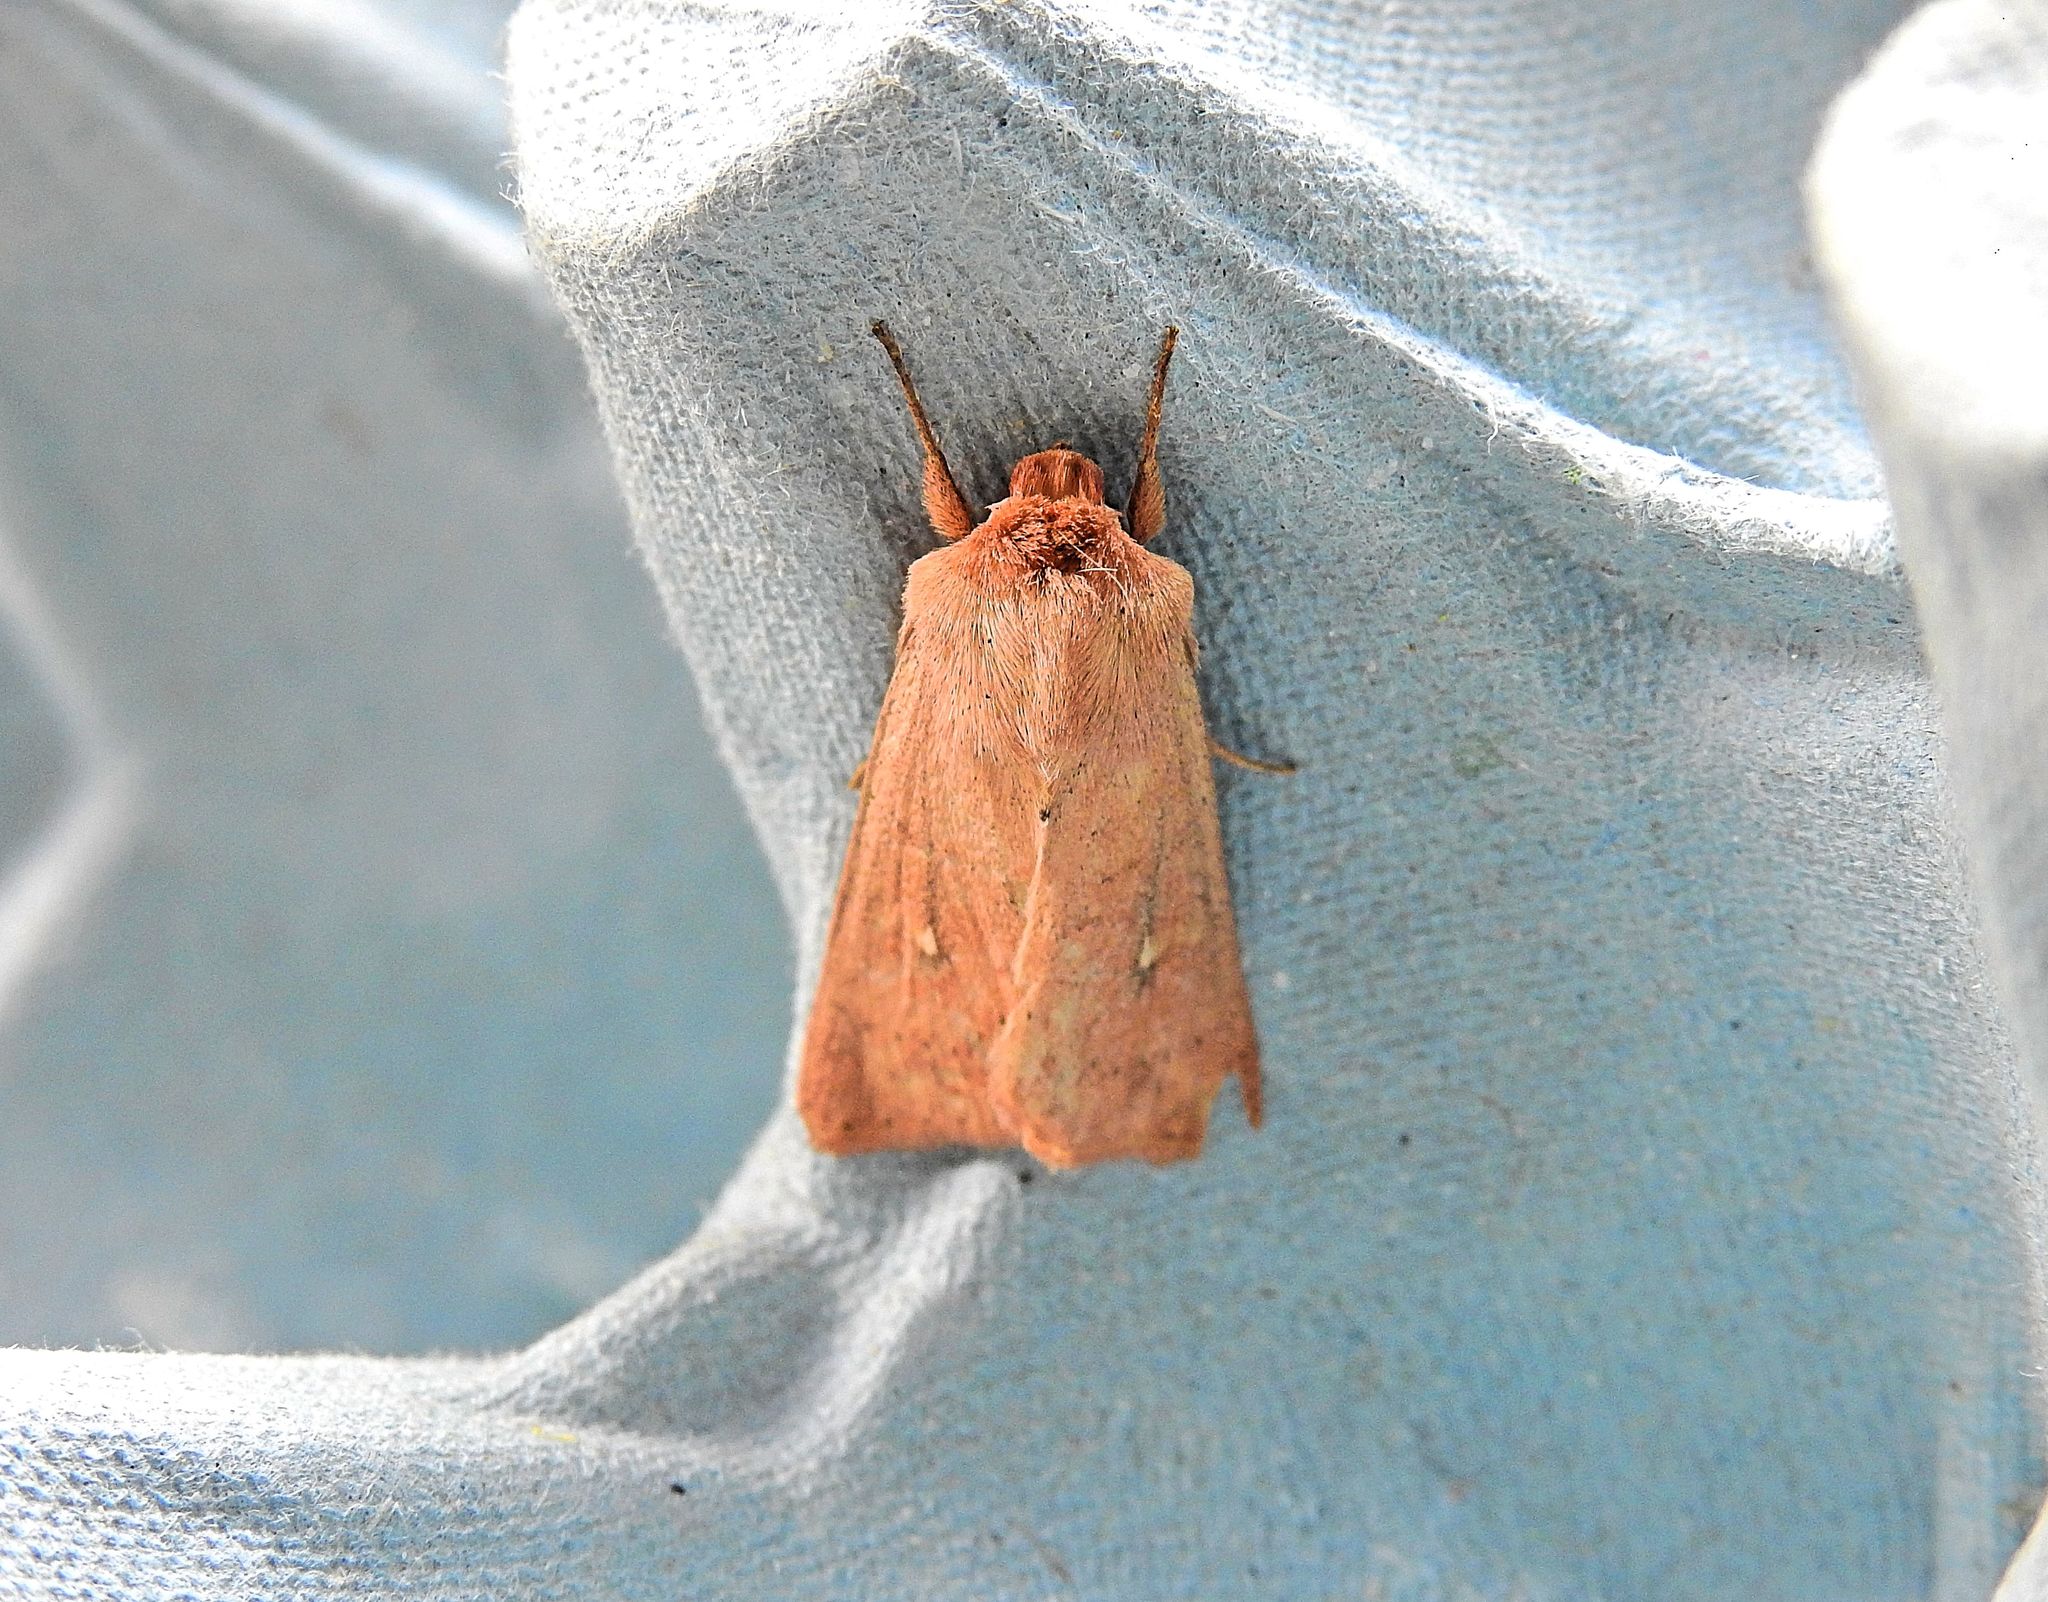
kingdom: Animalia
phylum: Arthropoda
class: Insecta
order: Lepidoptera
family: Noctuidae
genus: Mythimna
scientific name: Mythimna ferrago
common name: Clay
